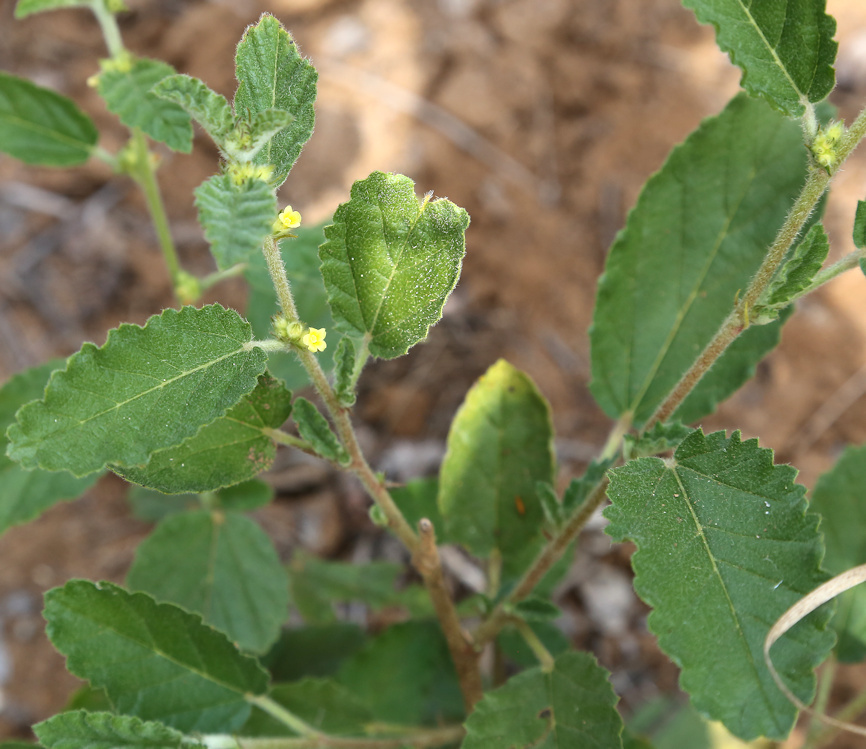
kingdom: Plantae
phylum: Tracheophyta
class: Magnoliopsida
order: Malvales
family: Malvaceae
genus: Waltheria
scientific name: Waltheria indica
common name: Leather-coat
